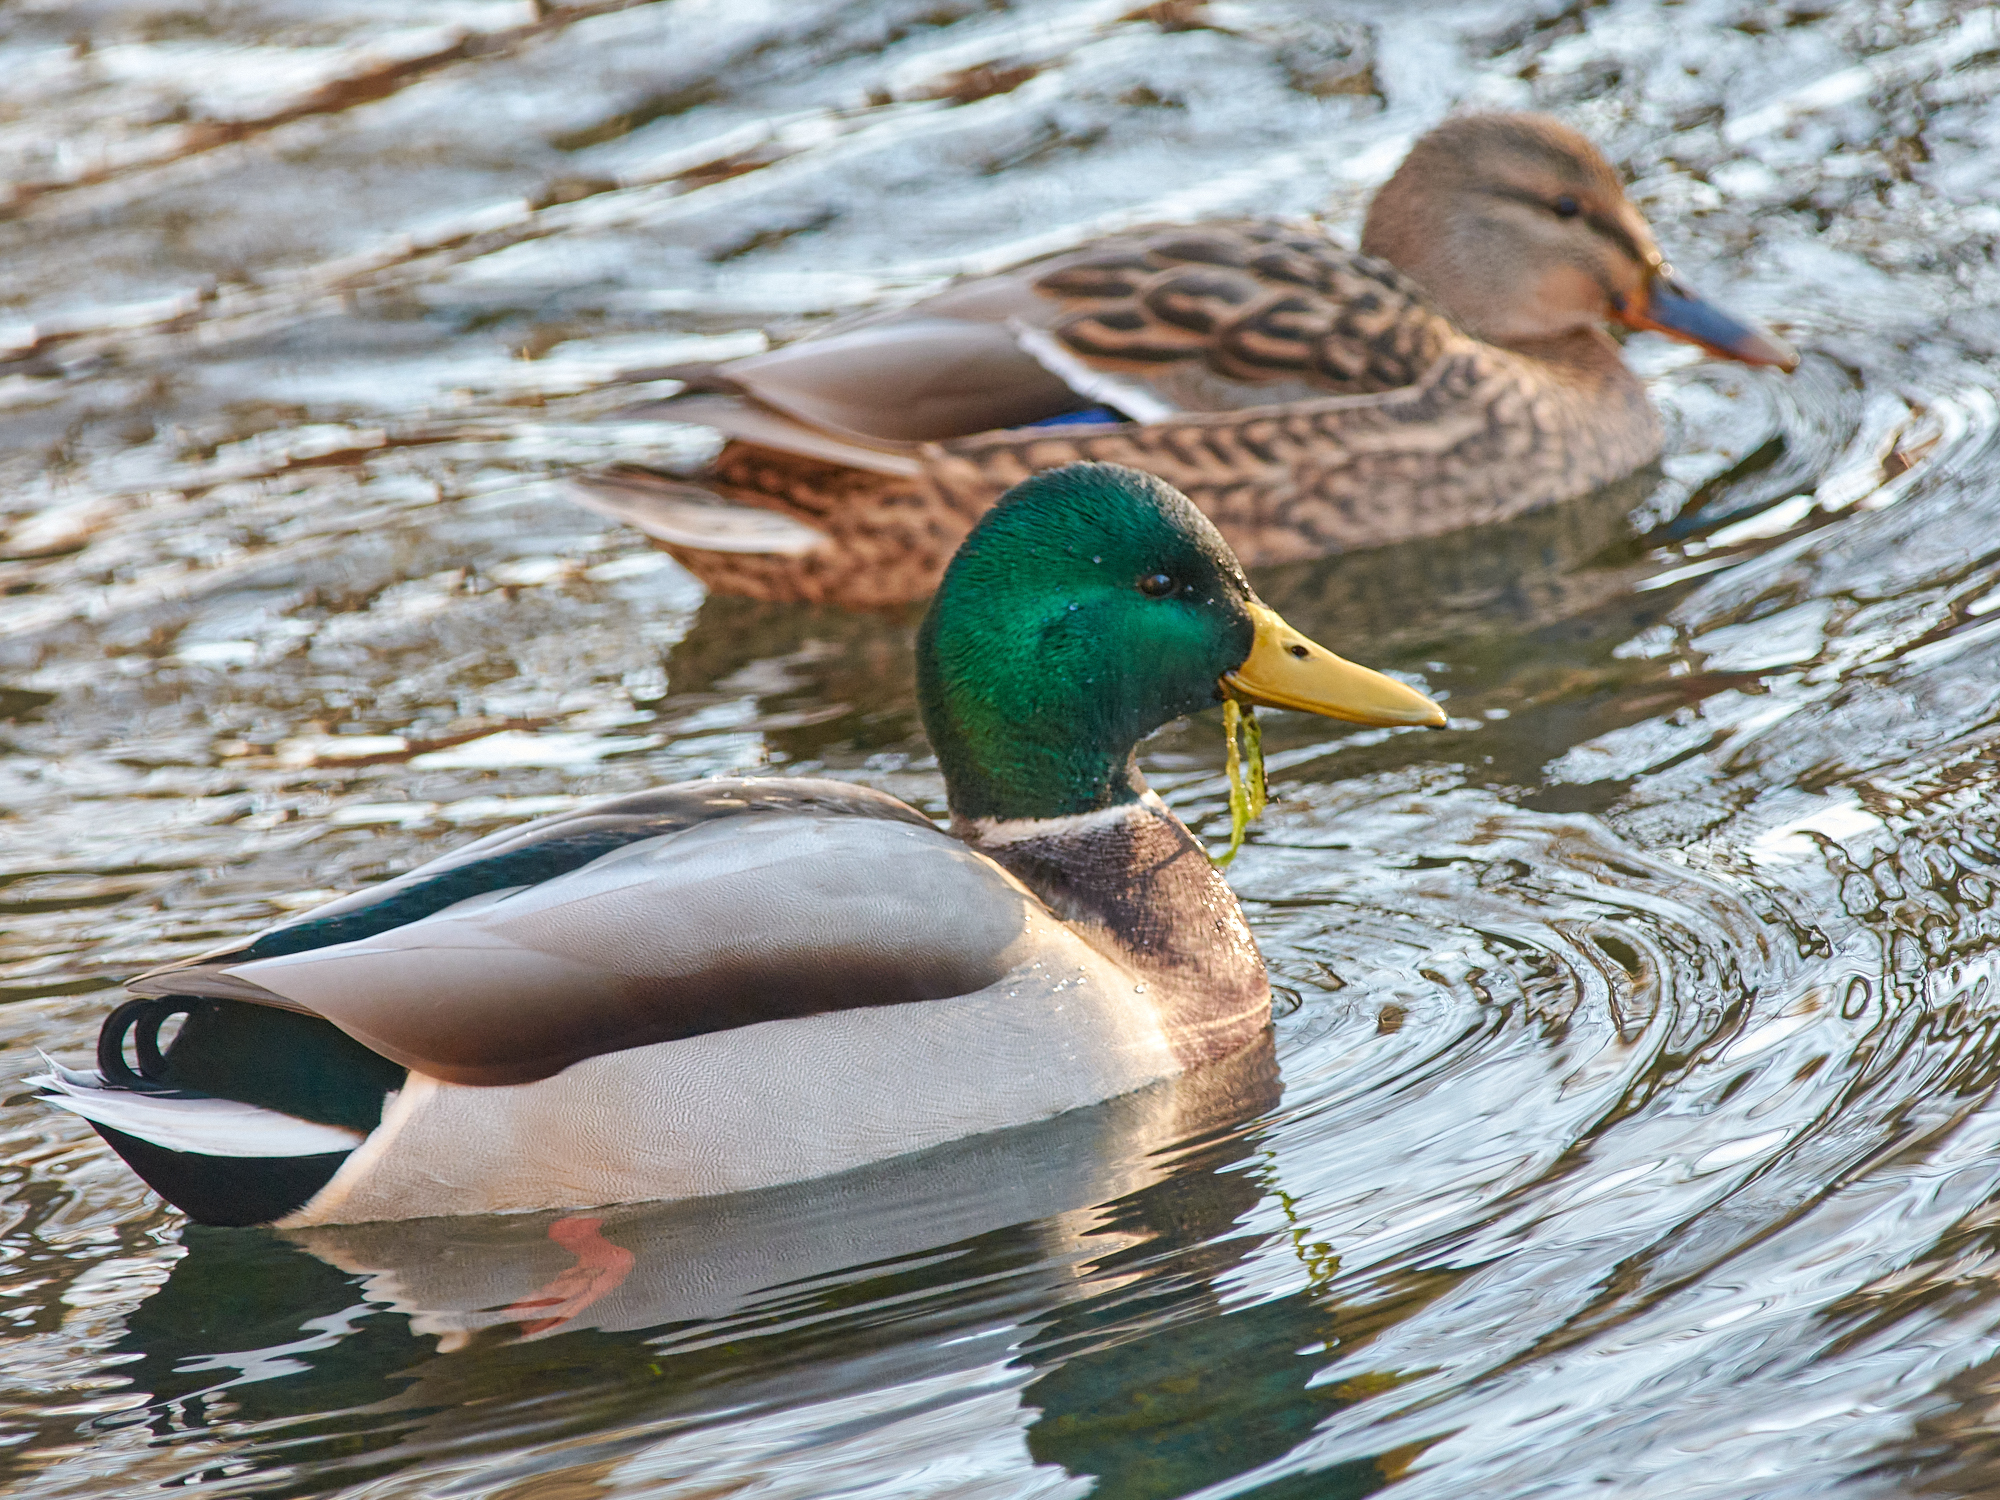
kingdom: Animalia
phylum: Chordata
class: Aves
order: Anseriformes
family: Anatidae
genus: Anas
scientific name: Anas platyrhynchos
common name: Mallard
